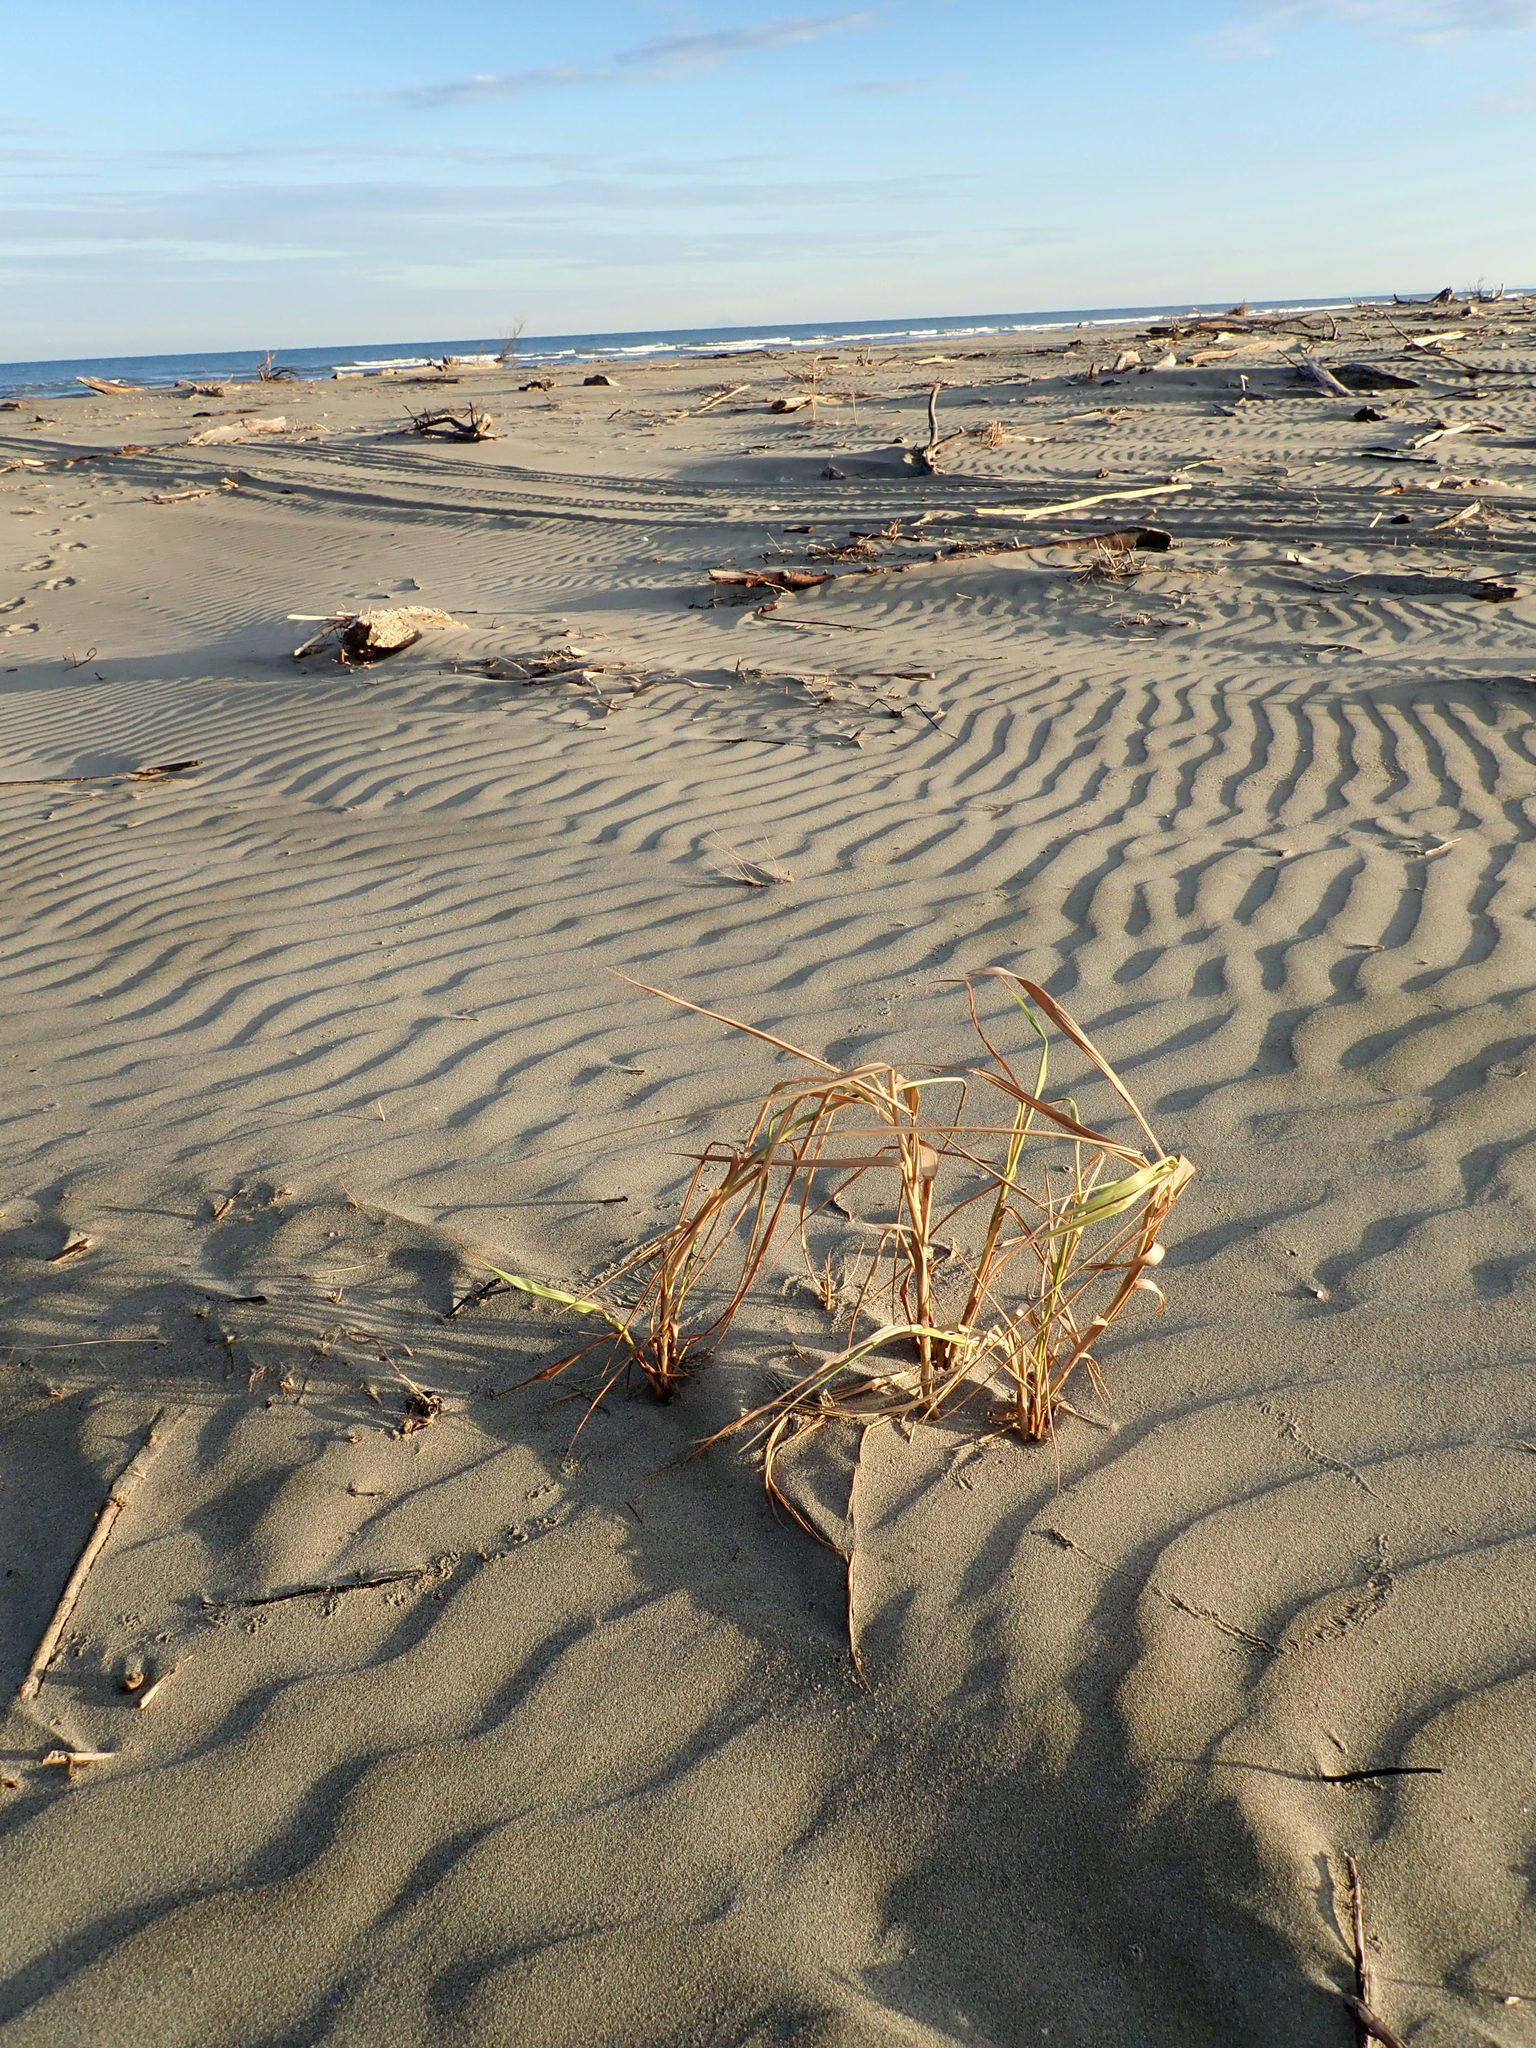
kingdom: Plantae
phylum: Tracheophyta
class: Liliopsida
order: Poales
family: Poaceae
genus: Phragmites
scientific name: Phragmites karka
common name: Tropical reed
